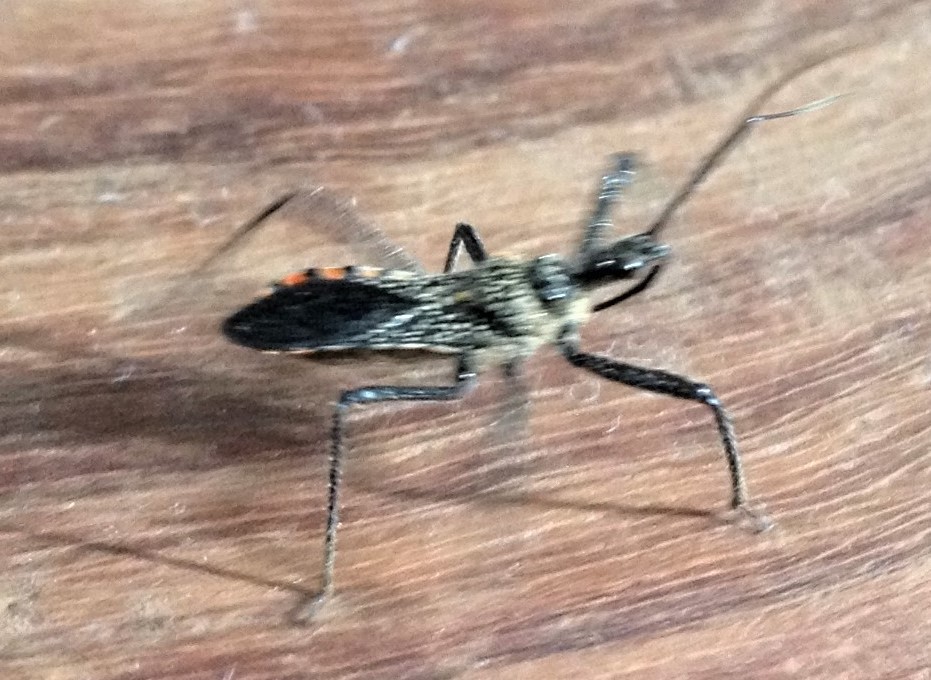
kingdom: Animalia
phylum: Arthropoda
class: Insecta
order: Hemiptera
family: Reduviidae
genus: Rhynocoris
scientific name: Rhynocoris tristis
